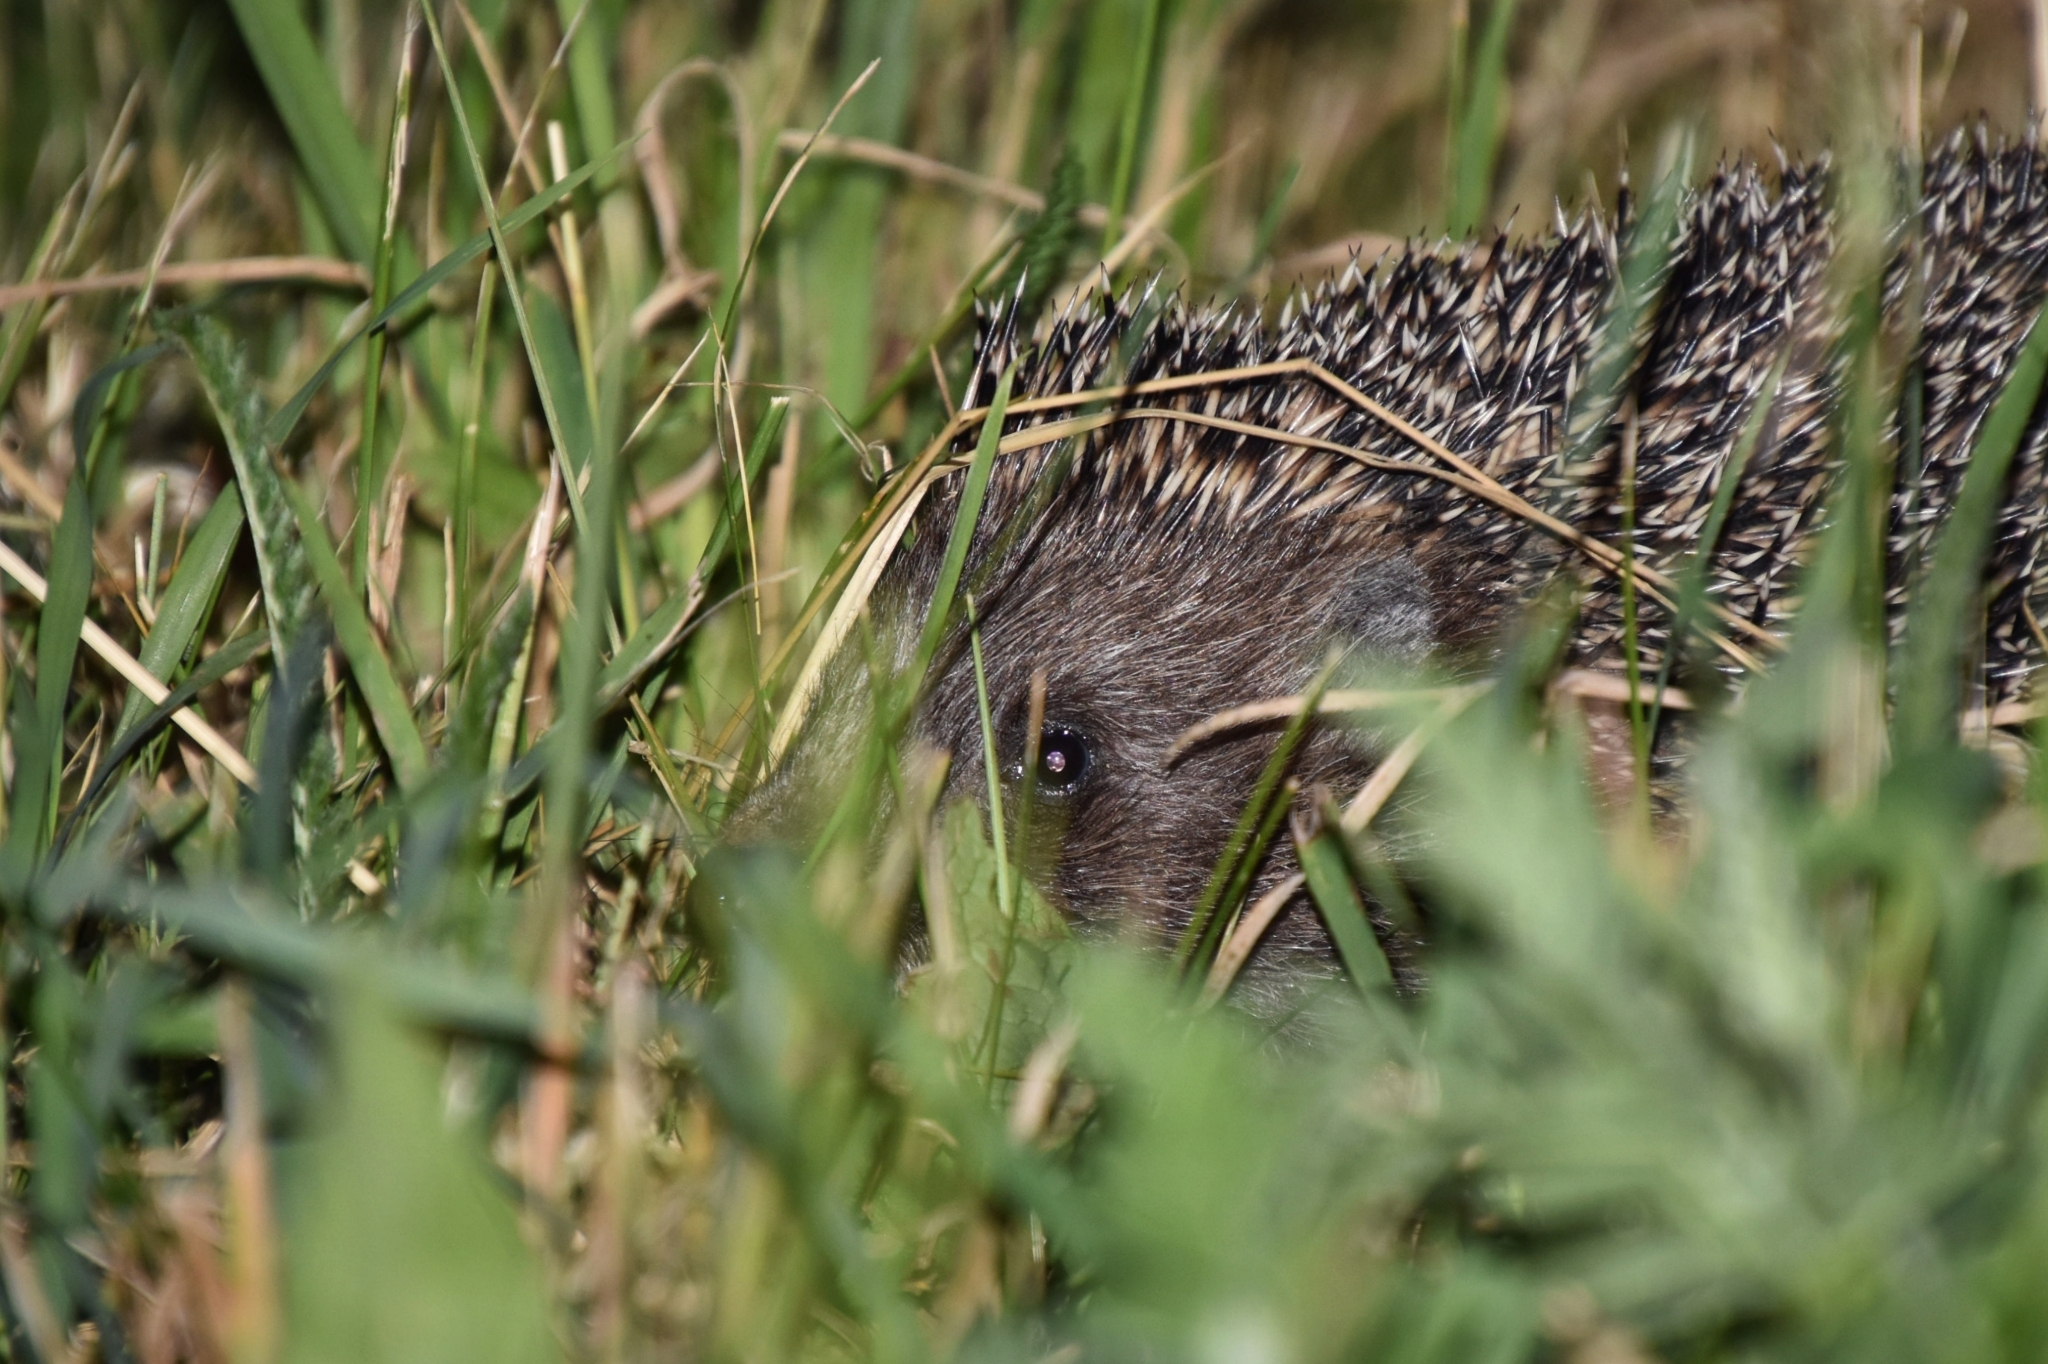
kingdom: Animalia
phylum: Chordata
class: Mammalia
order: Erinaceomorpha
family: Erinaceidae
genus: Erinaceus
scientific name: Erinaceus roumanicus
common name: Northern white-breasted hedgehog
